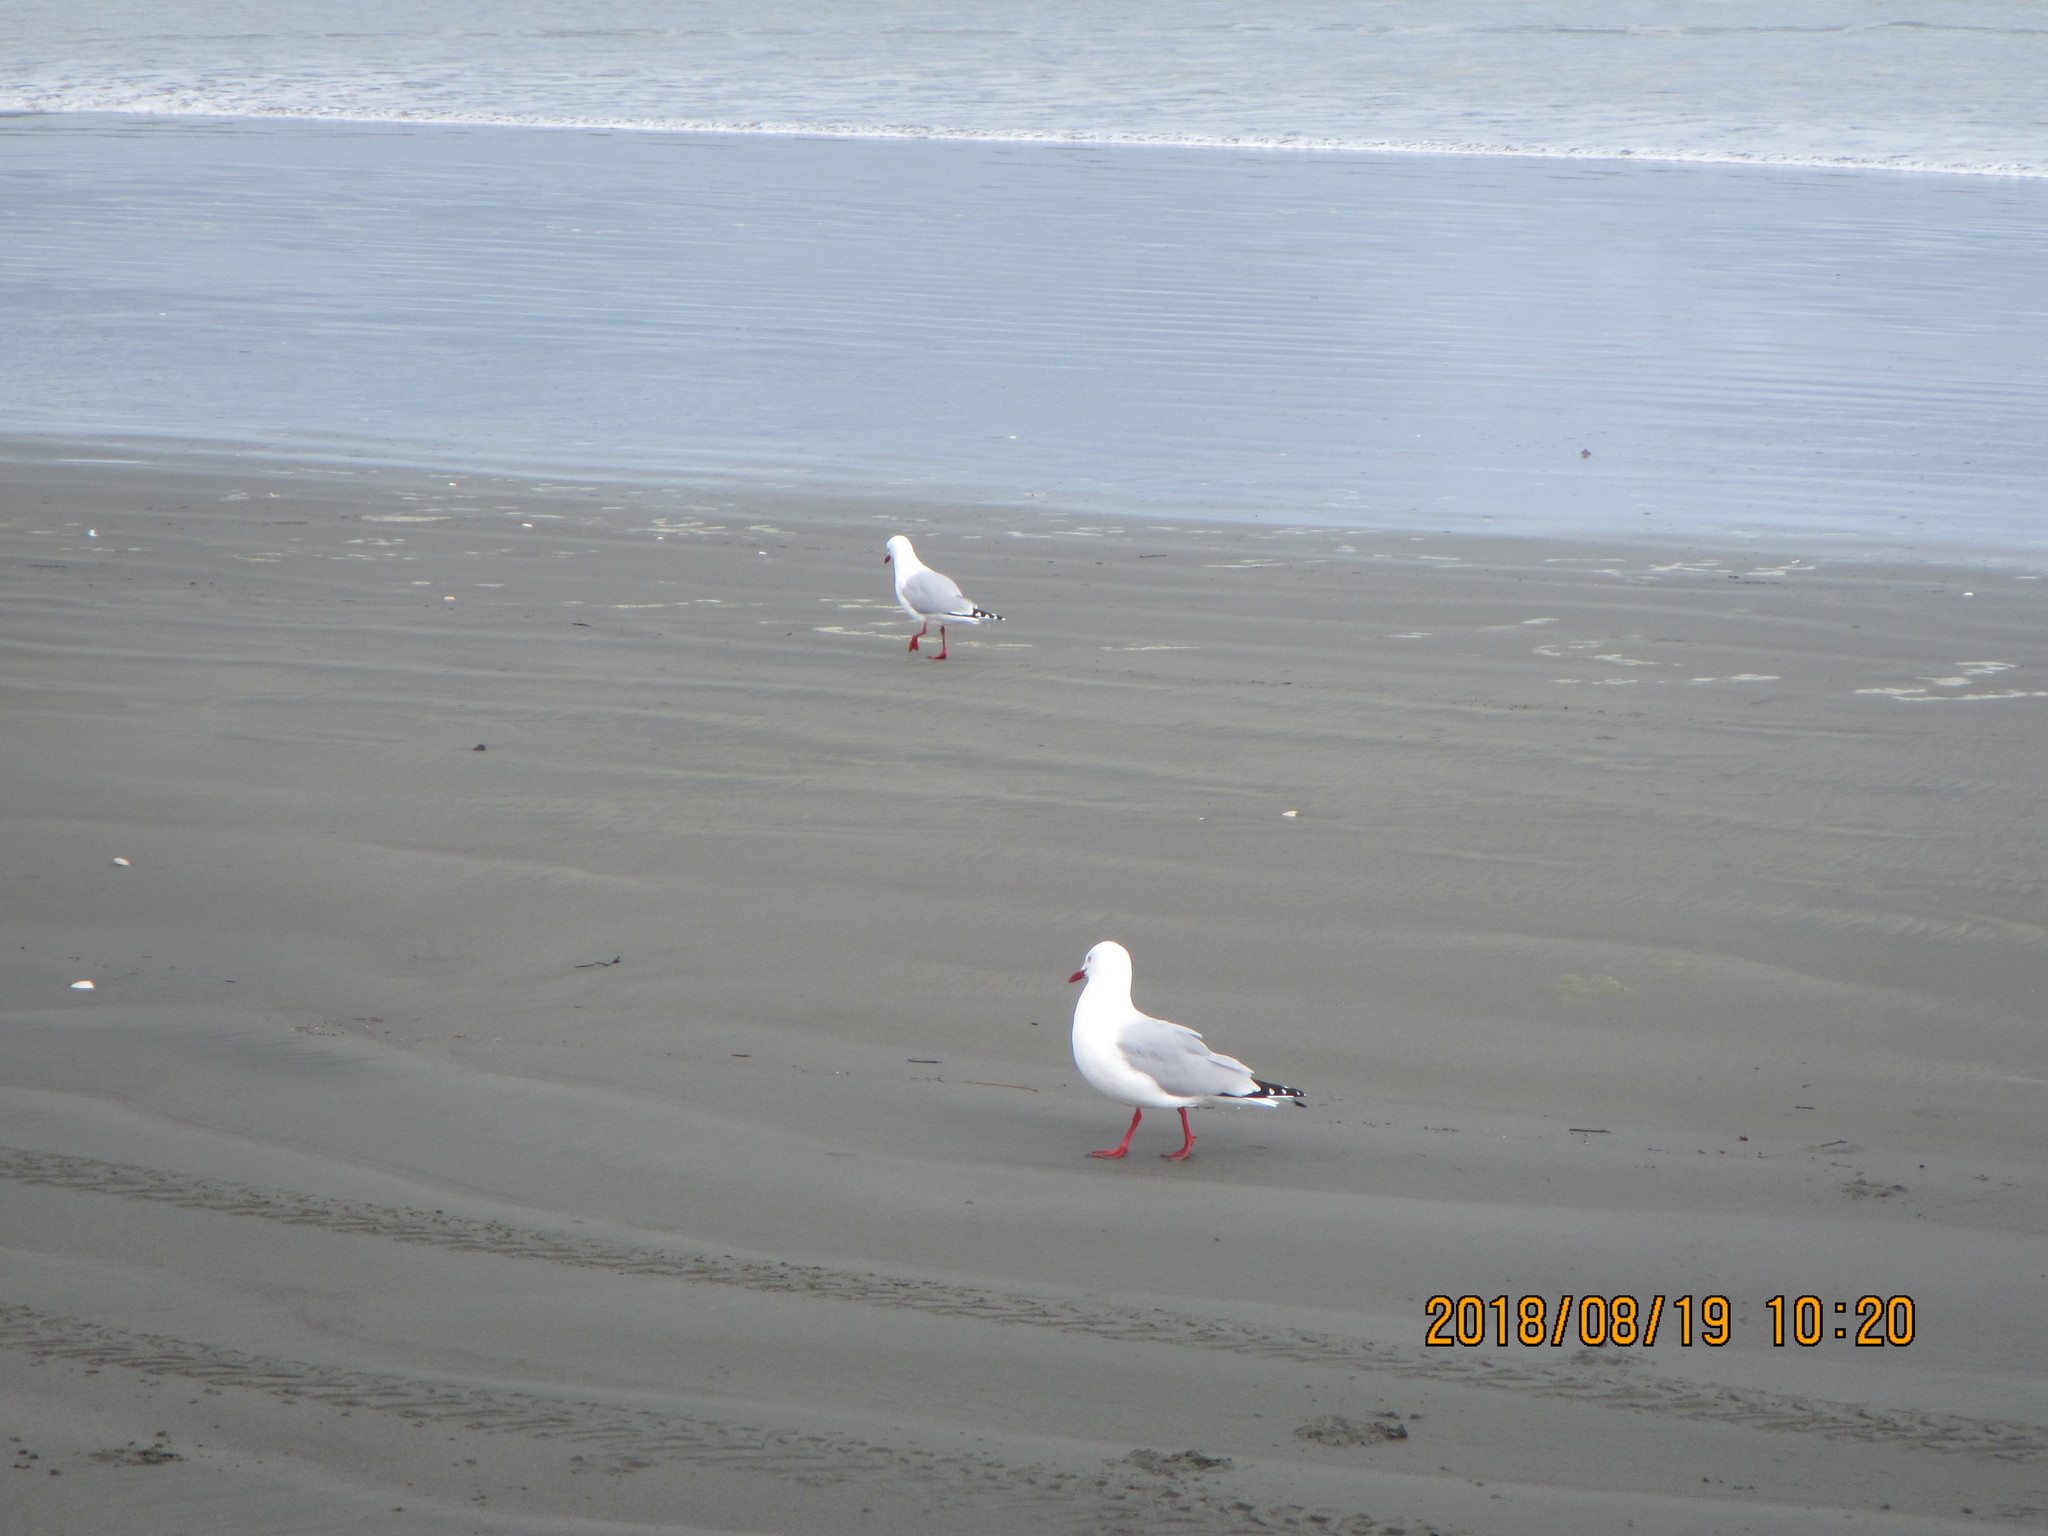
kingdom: Animalia
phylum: Chordata
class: Aves
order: Charadriiformes
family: Laridae
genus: Chroicocephalus
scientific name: Chroicocephalus novaehollandiae
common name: Silver gull
